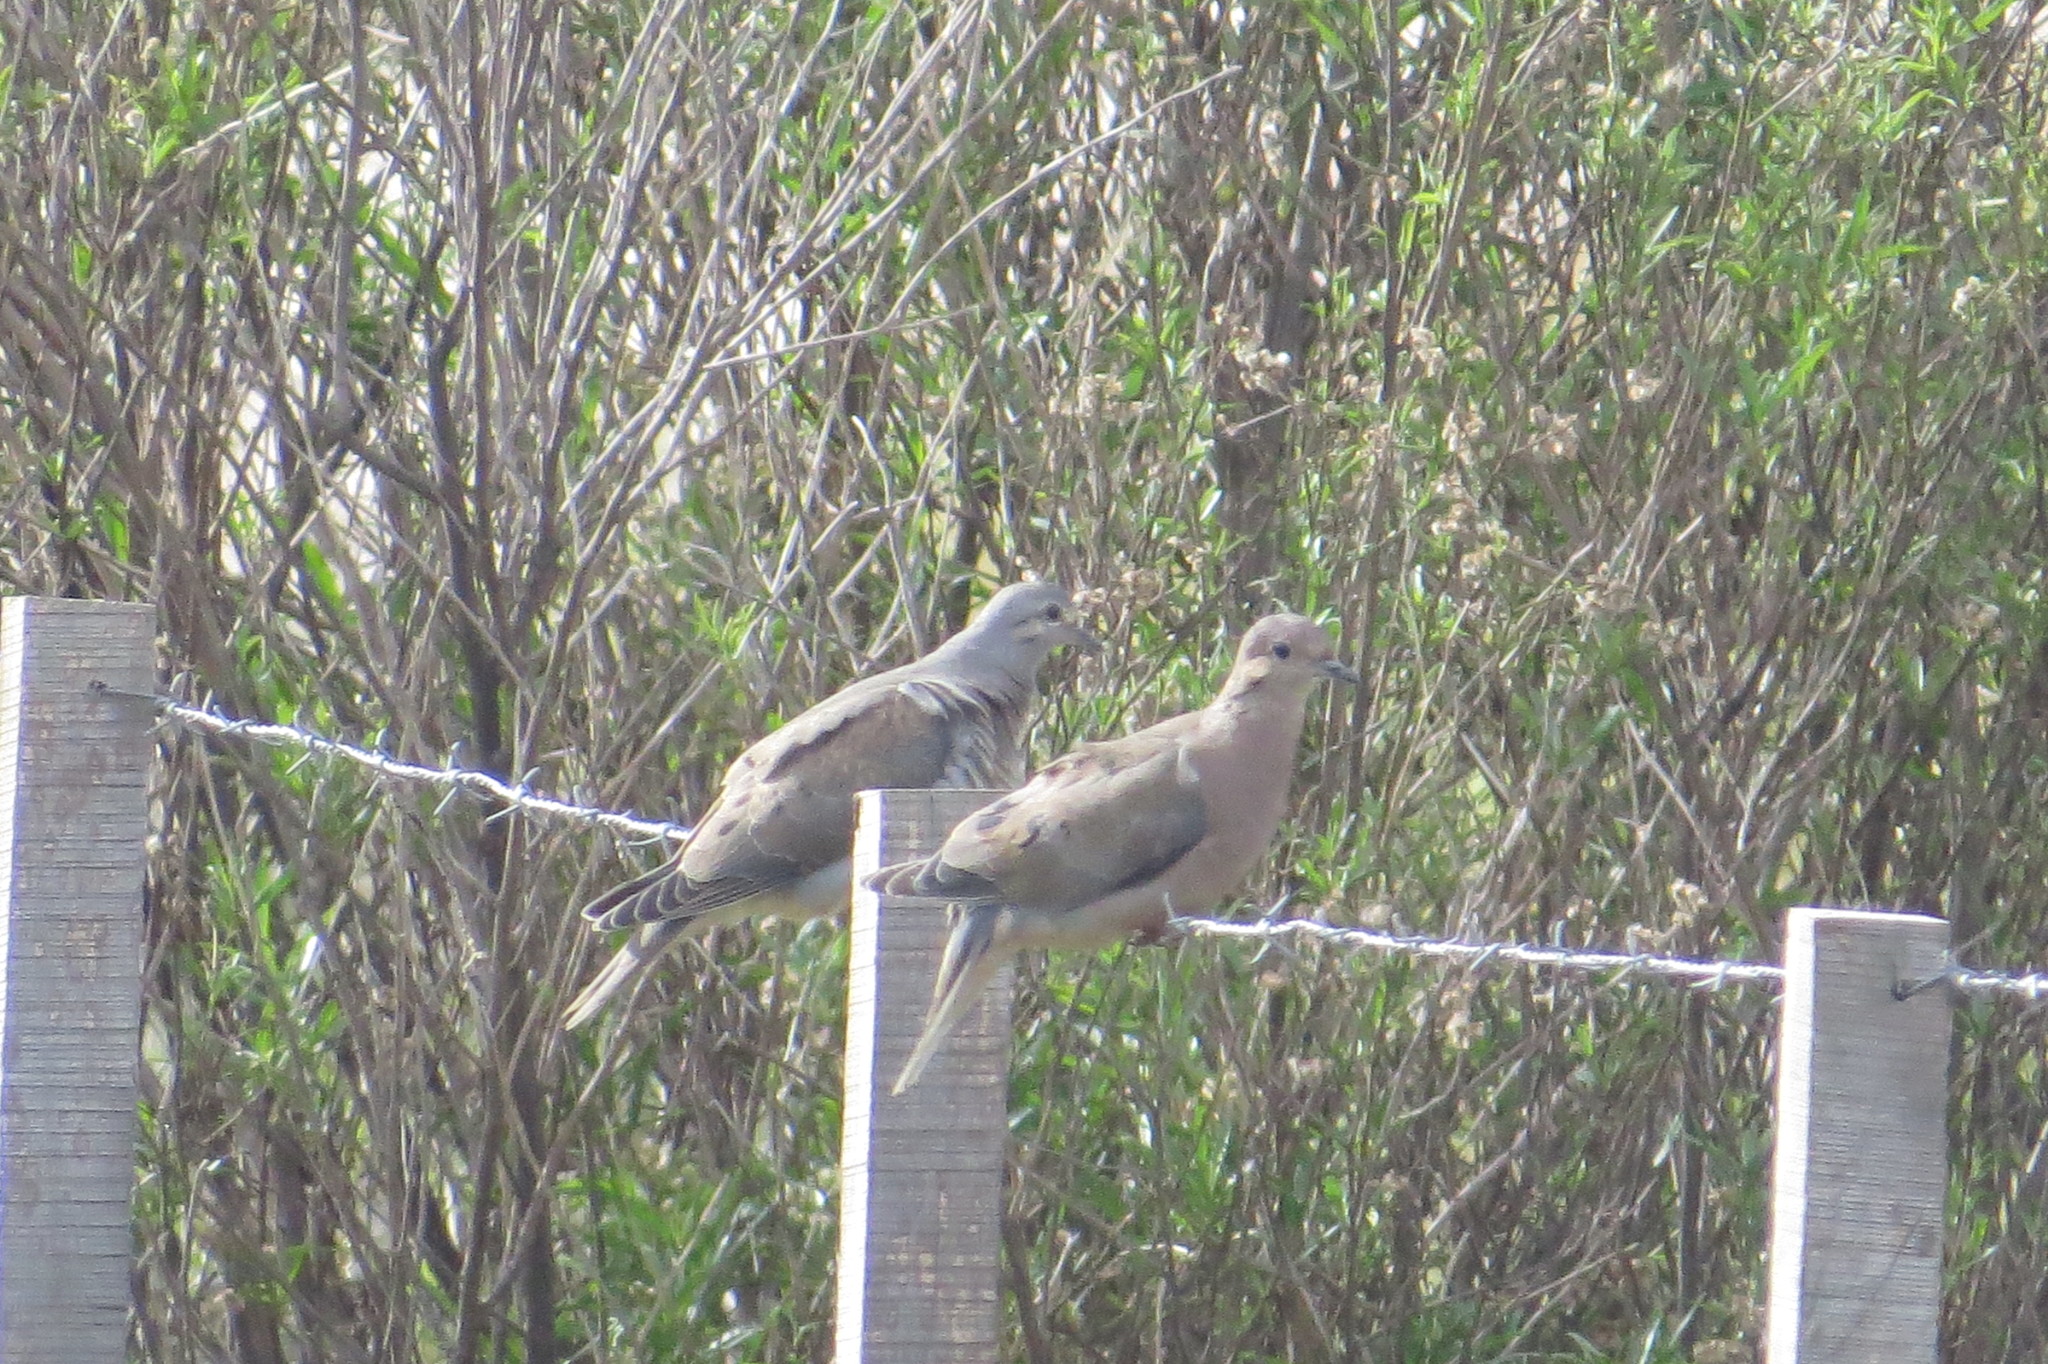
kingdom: Animalia
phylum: Chordata
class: Aves
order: Columbiformes
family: Columbidae
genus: Zenaida
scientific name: Zenaida auriculata
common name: Eared dove
